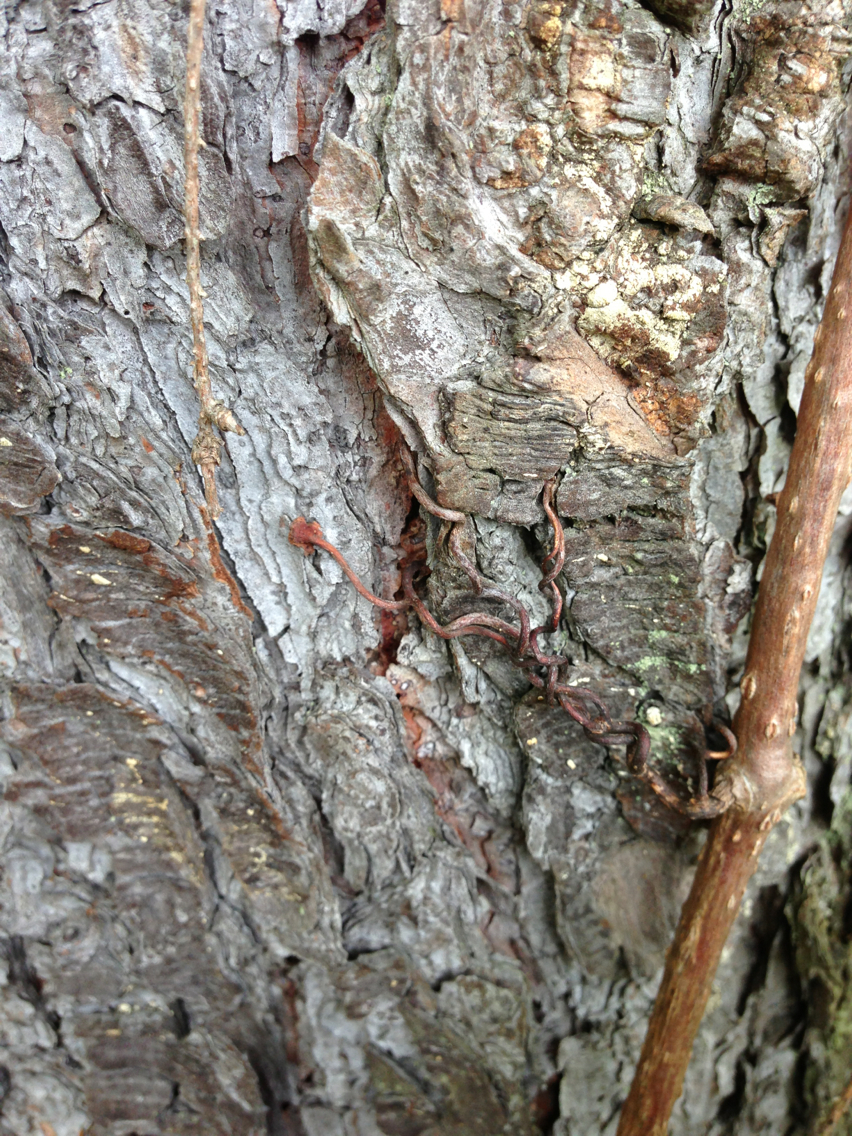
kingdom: Plantae
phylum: Tracheophyta
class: Magnoliopsida
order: Vitales
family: Vitaceae
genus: Parthenocissus
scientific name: Parthenocissus quinquefolia
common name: Virginia-creeper
